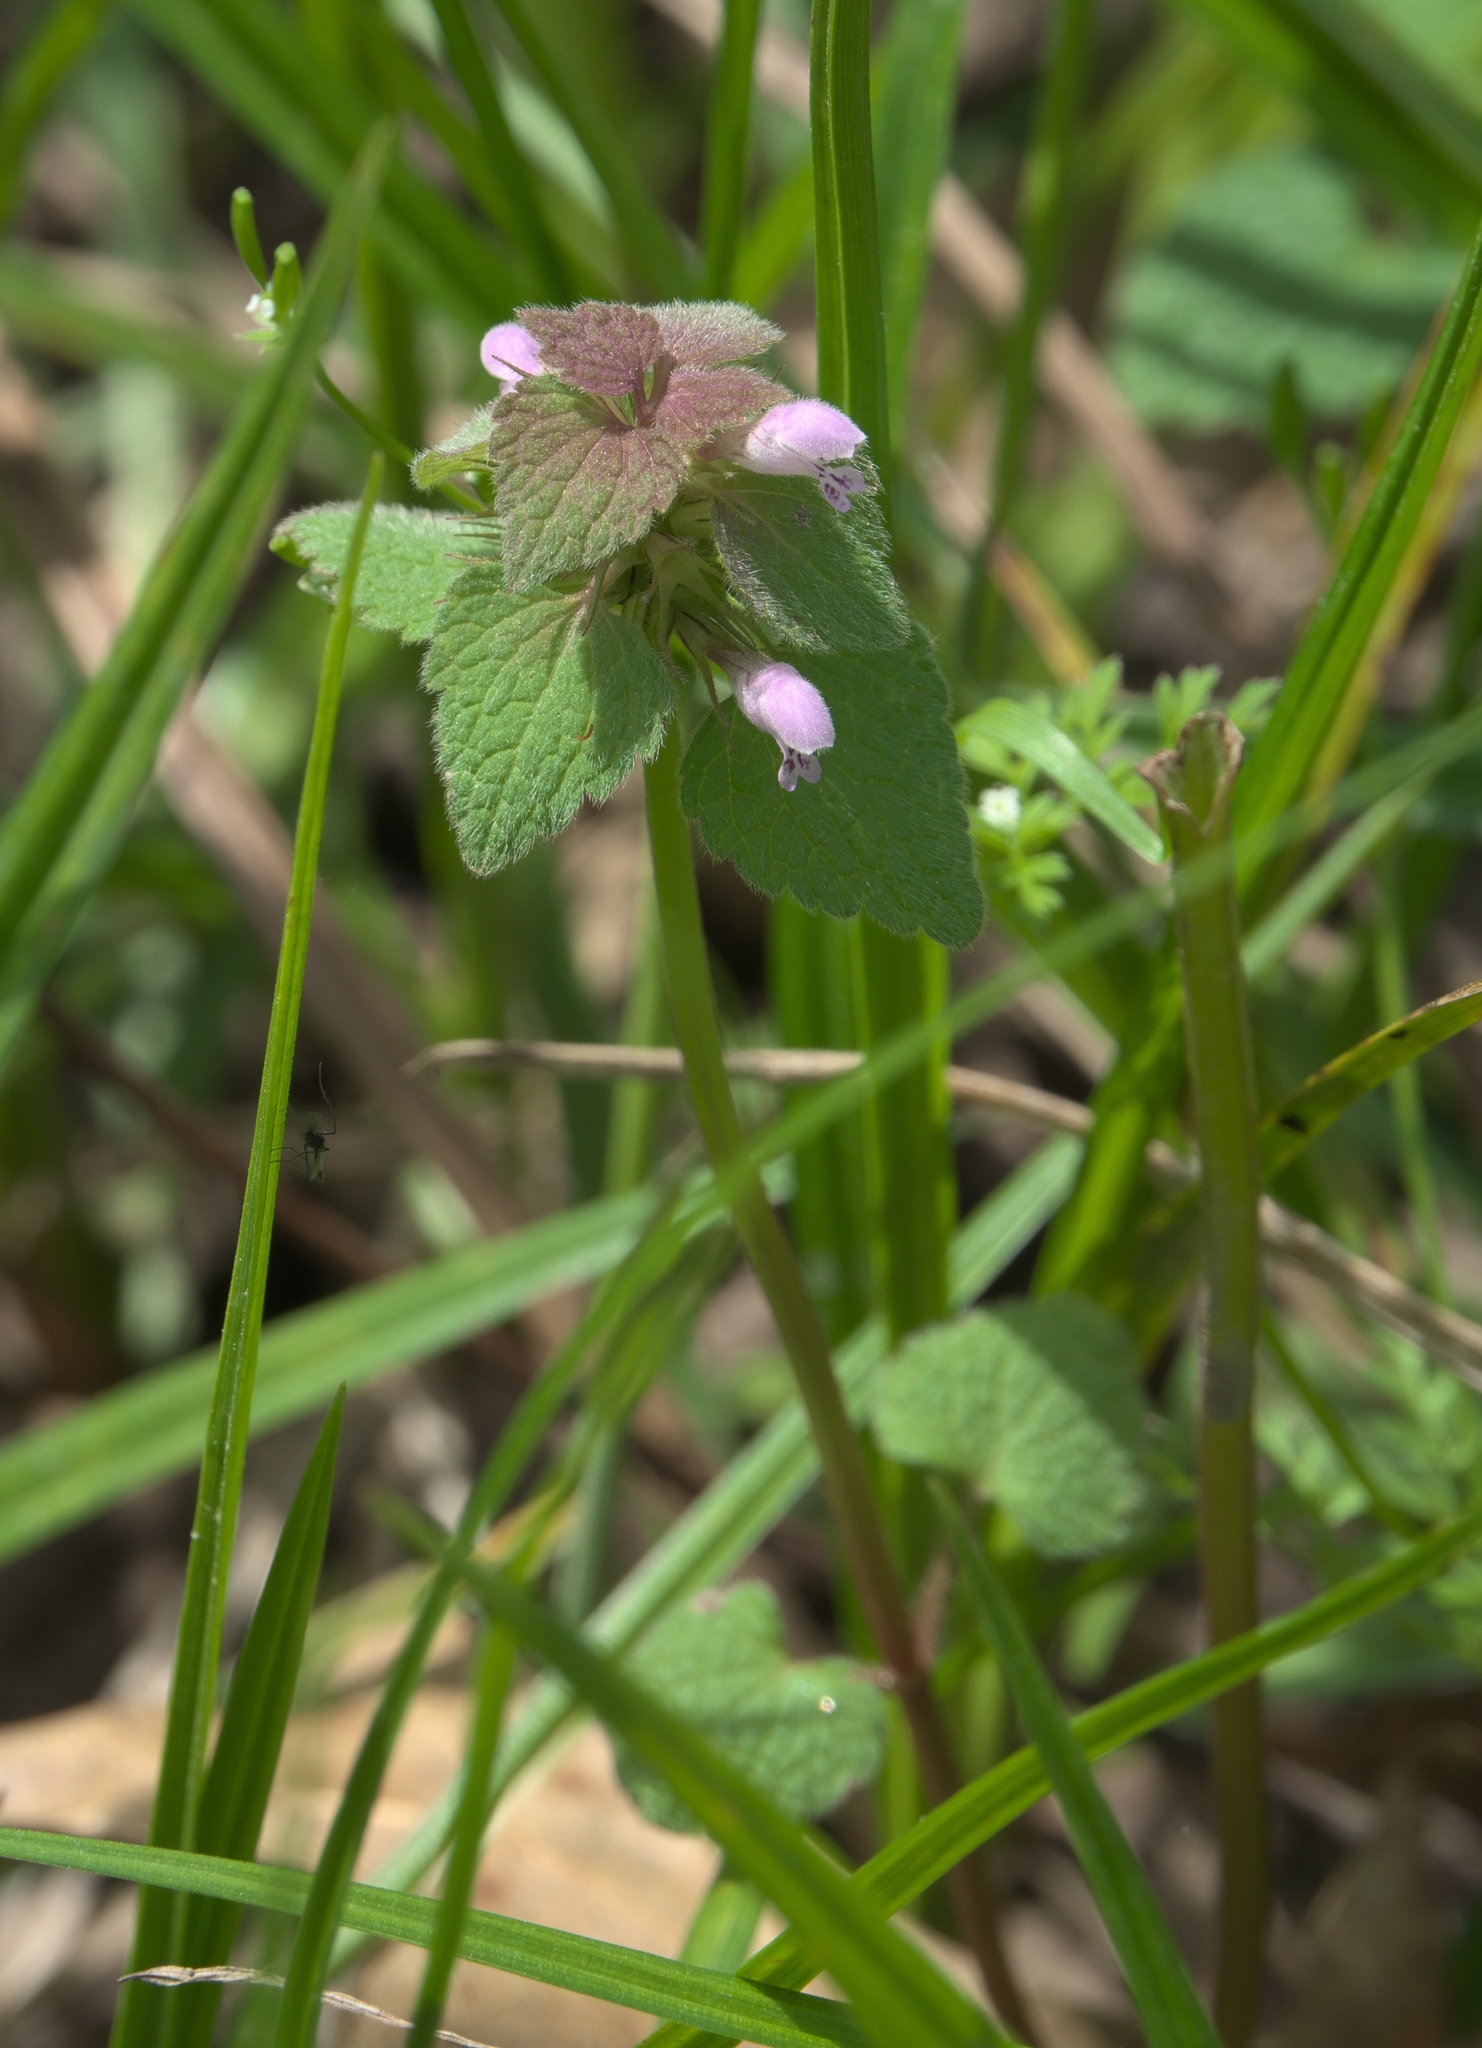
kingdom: Plantae
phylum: Tracheophyta
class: Magnoliopsida
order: Lamiales
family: Lamiaceae
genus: Lamium
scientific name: Lamium purpureum
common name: Red dead-nettle
